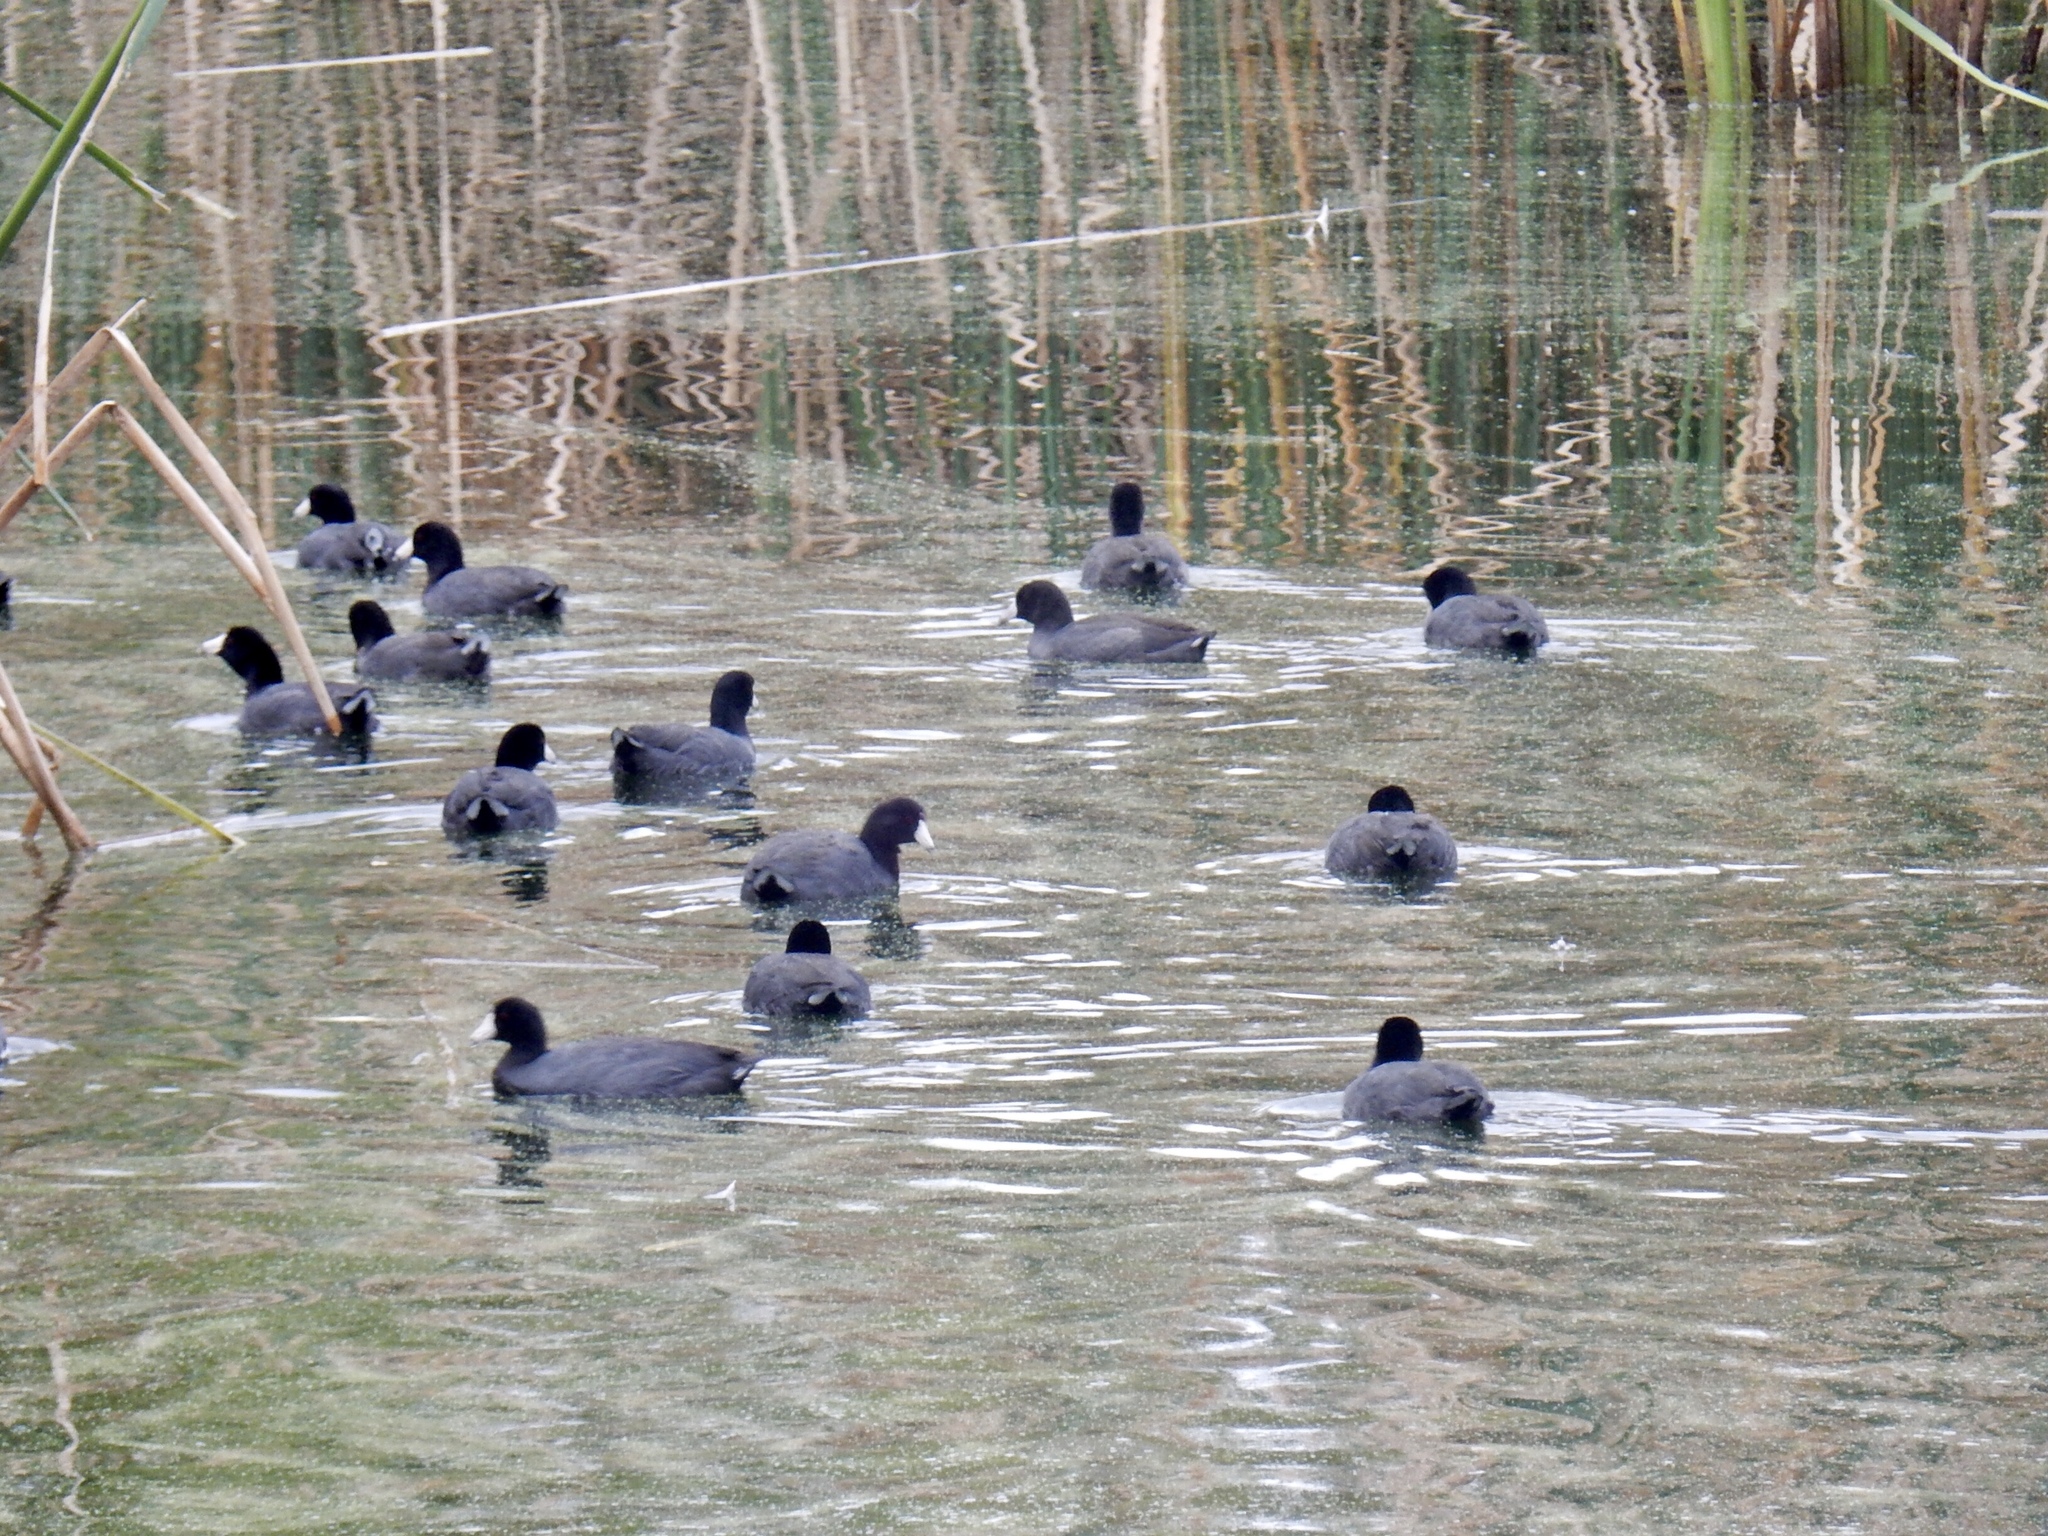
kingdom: Animalia
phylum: Chordata
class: Aves
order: Gruiformes
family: Rallidae
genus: Fulica
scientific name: Fulica americana
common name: American coot
